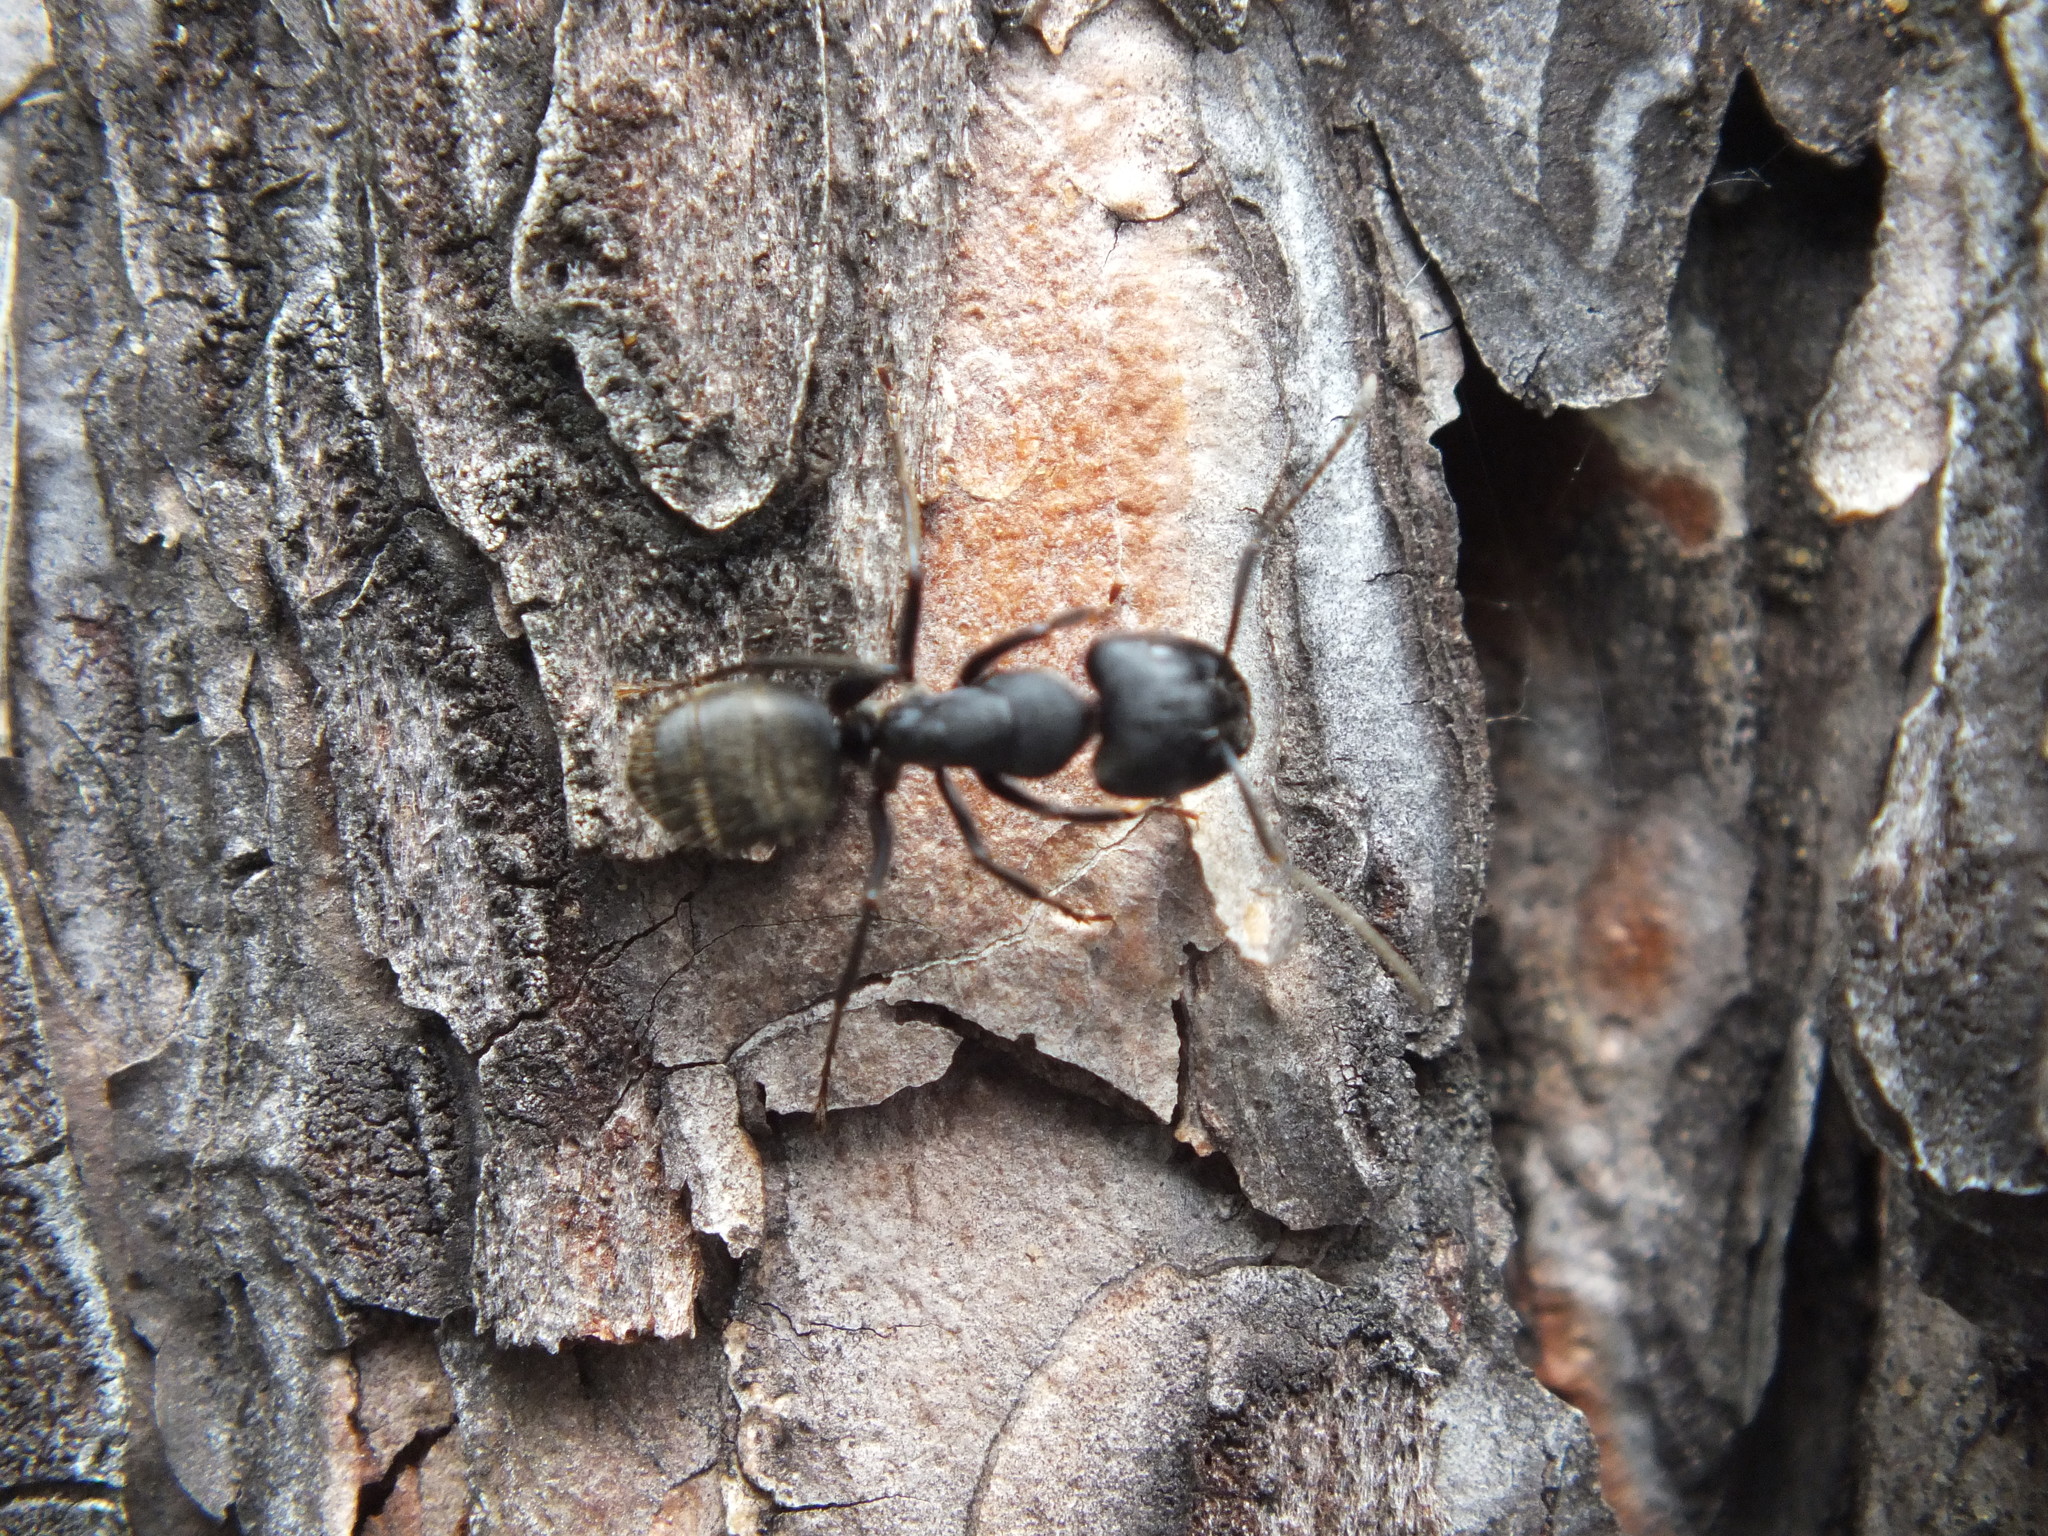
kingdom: Animalia
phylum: Arthropoda
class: Insecta
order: Hymenoptera
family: Formicidae
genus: Camponotus
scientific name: Camponotus saxatilis
